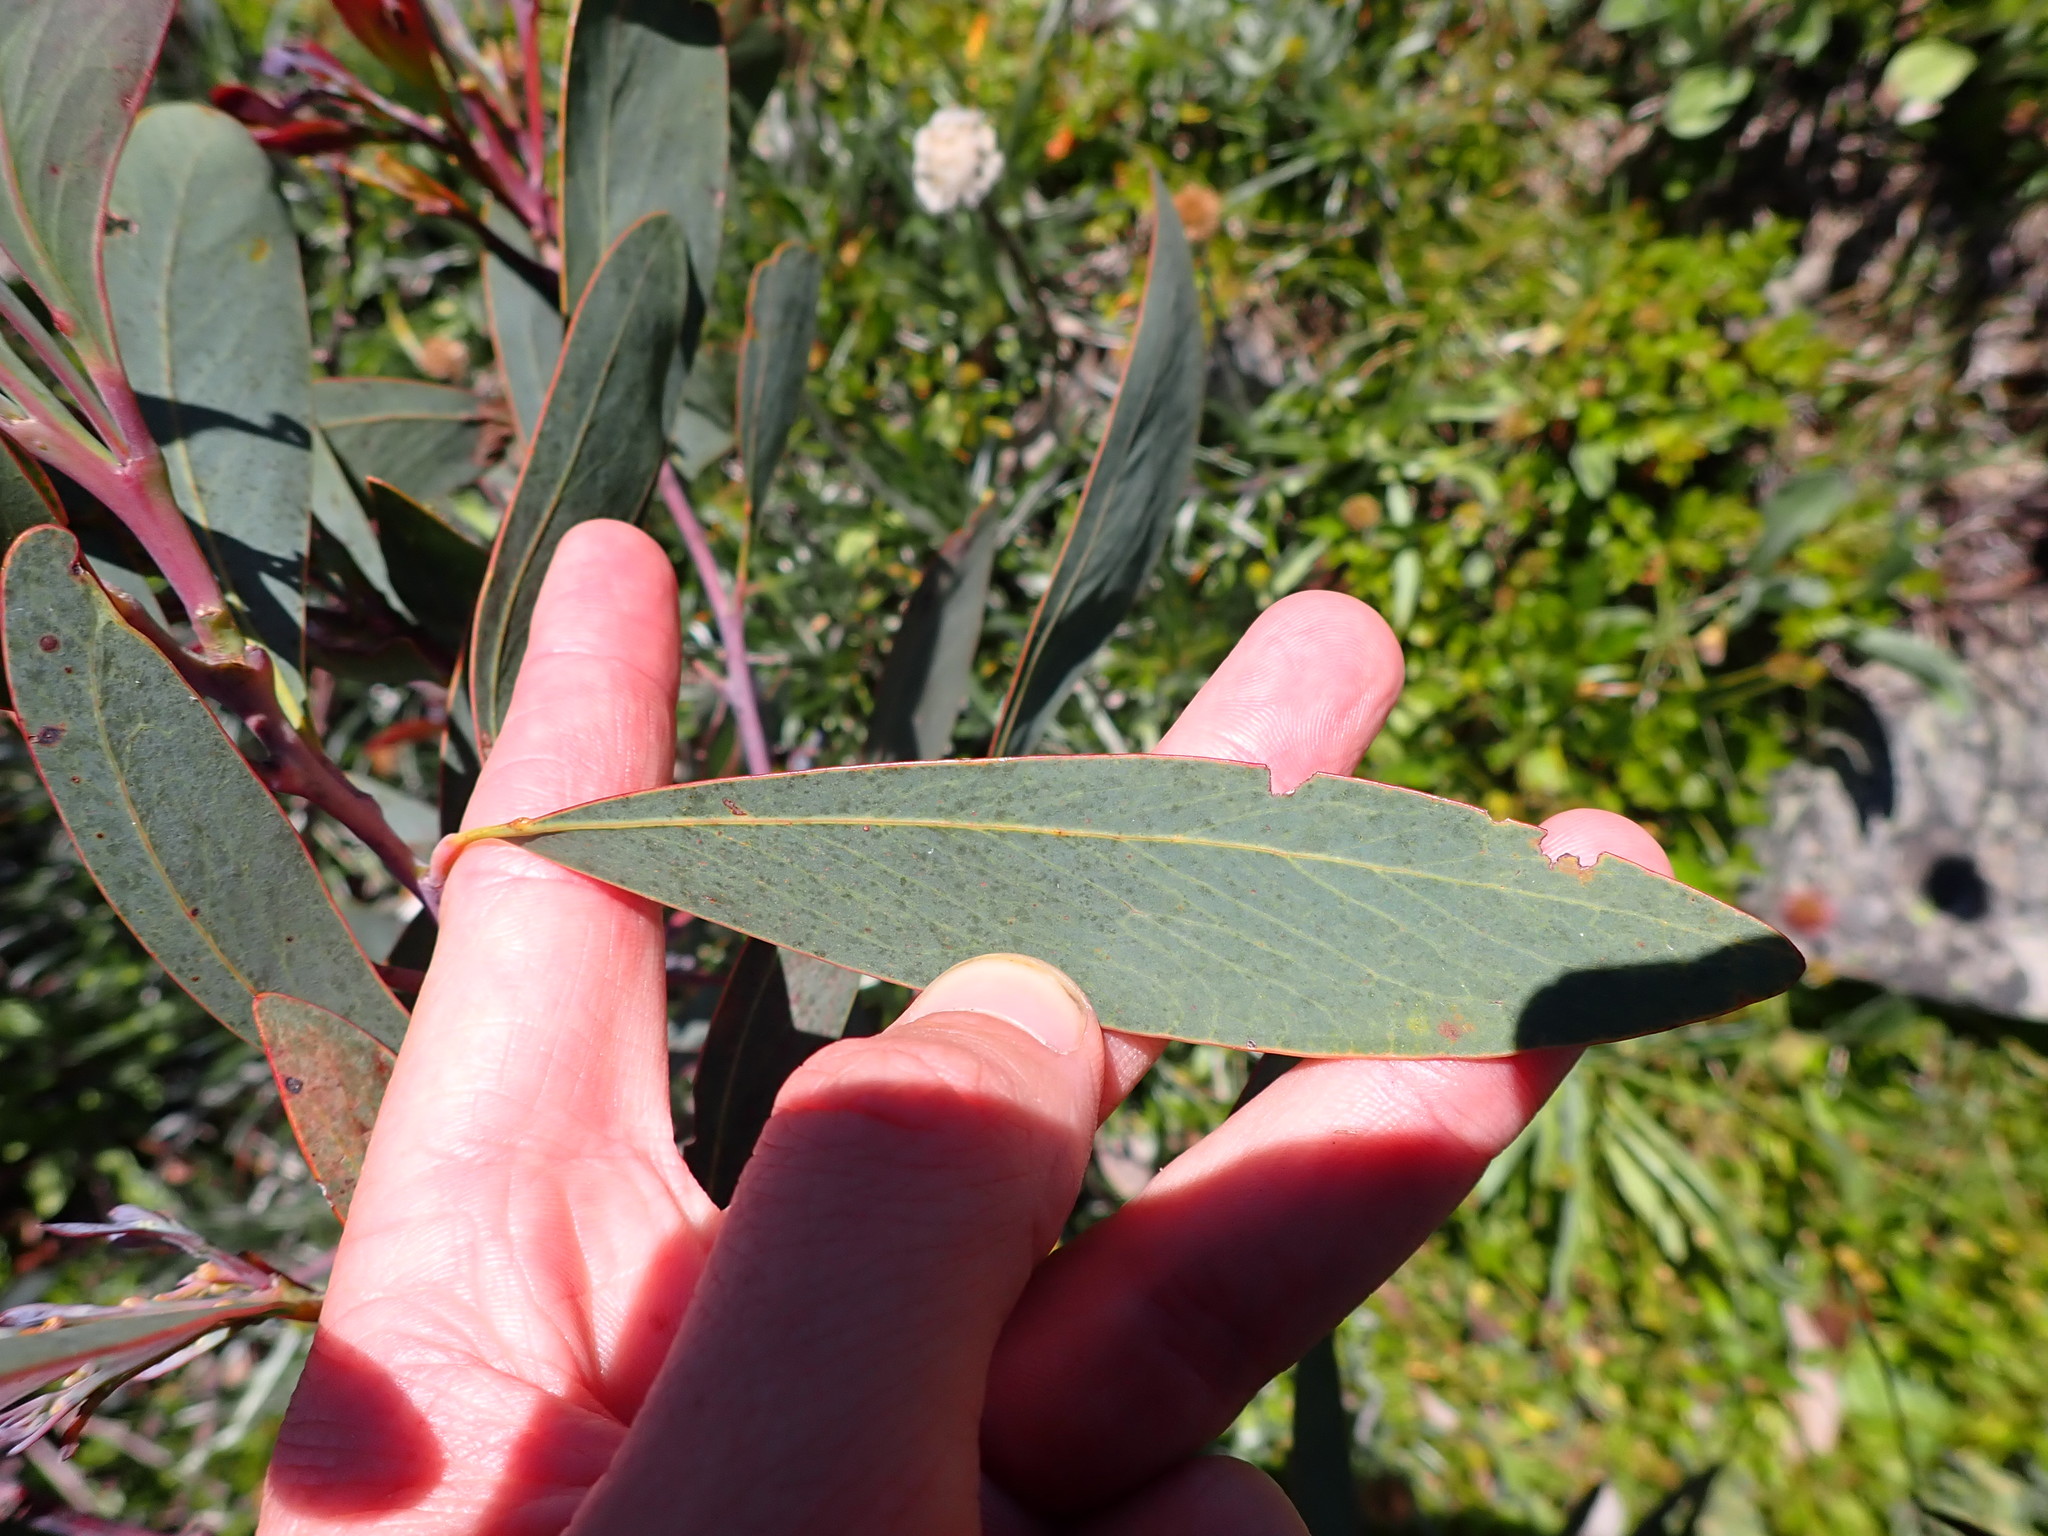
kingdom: Plantae
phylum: Tracheophyta
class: Magnoliopsida
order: Fabales
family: Fabaceae
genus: Acacia
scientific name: Acacia obliquinervia
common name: Mountain hickory wattle
